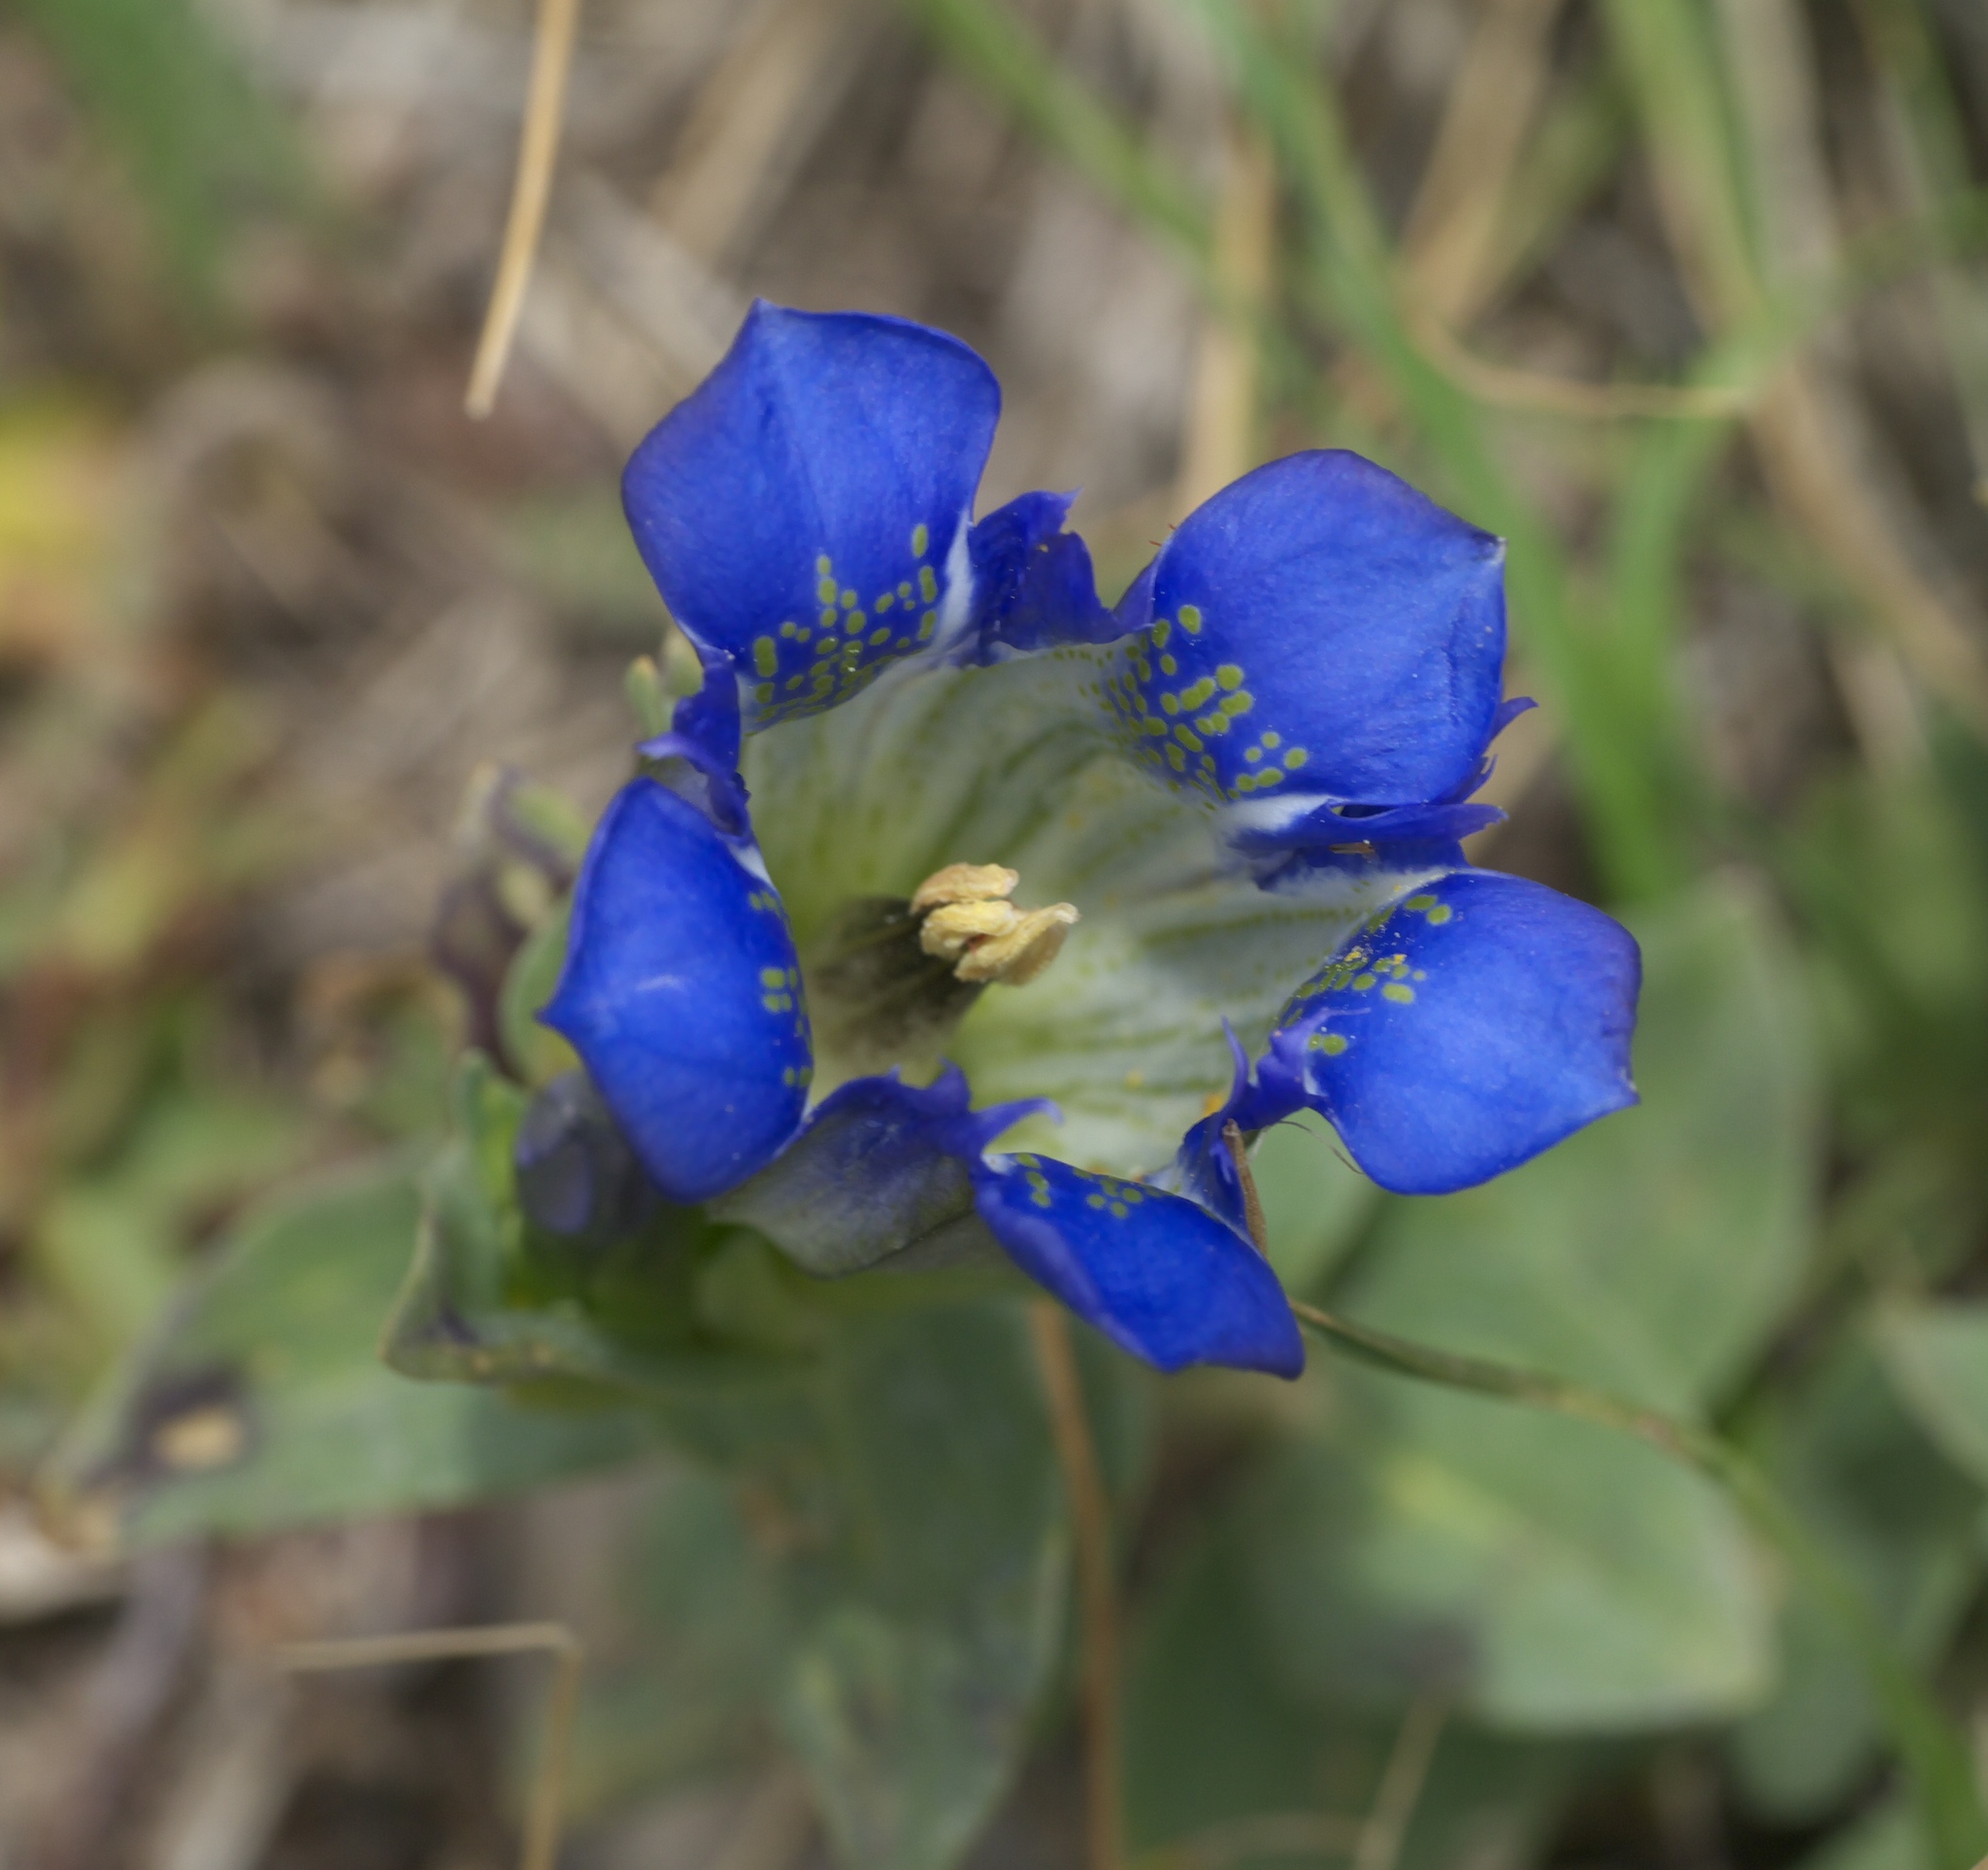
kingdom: Plantae
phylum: Tracheophyta
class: Magnoliopsida
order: Gentianales
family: Gentianaceae
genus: Gentiana
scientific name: Gentiana parryi
